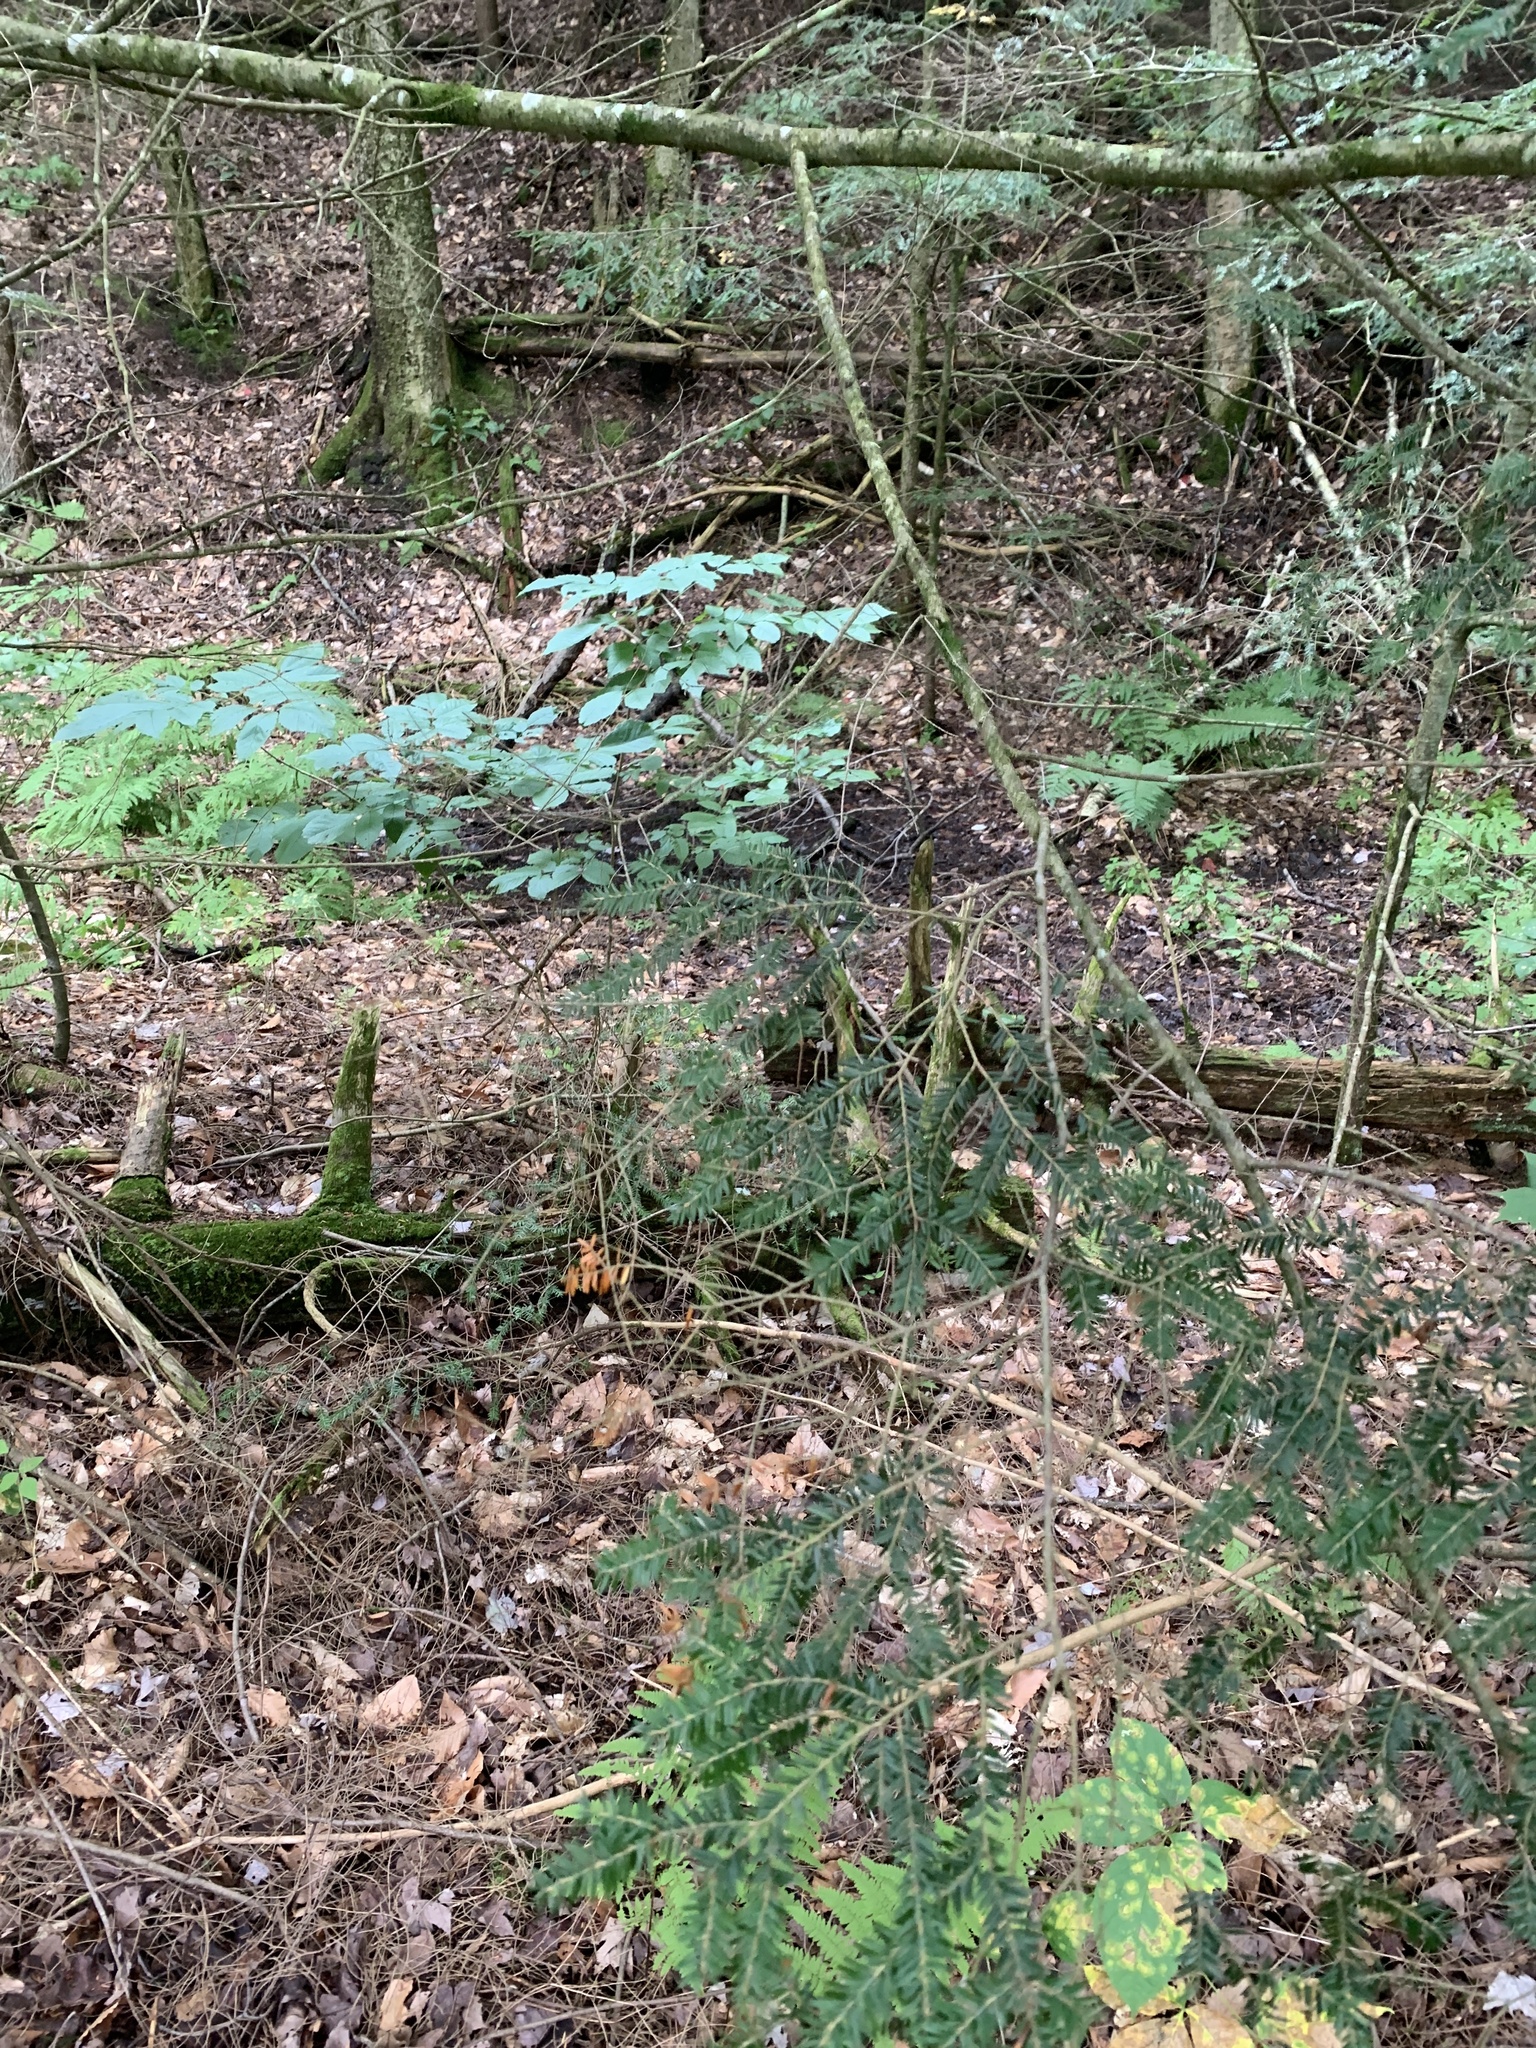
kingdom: Plantae
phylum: Tracheophyta
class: Pinopsida
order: Pinales
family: Pinaceae
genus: Tsuga
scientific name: Tsuga canadensis
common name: Eastern hemlock
